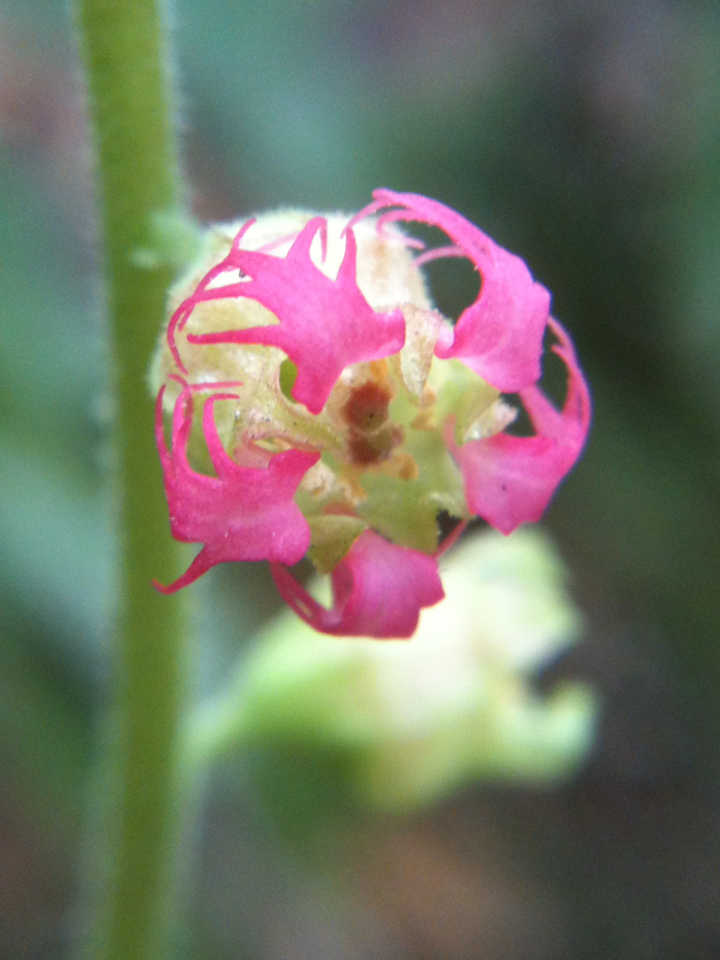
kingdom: Plantae
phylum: Tracheophyta
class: Magnoliopsida
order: Saxifragales
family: Saxifragaceae
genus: Tellima
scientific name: Tellima grandiflora
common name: Fringecups
